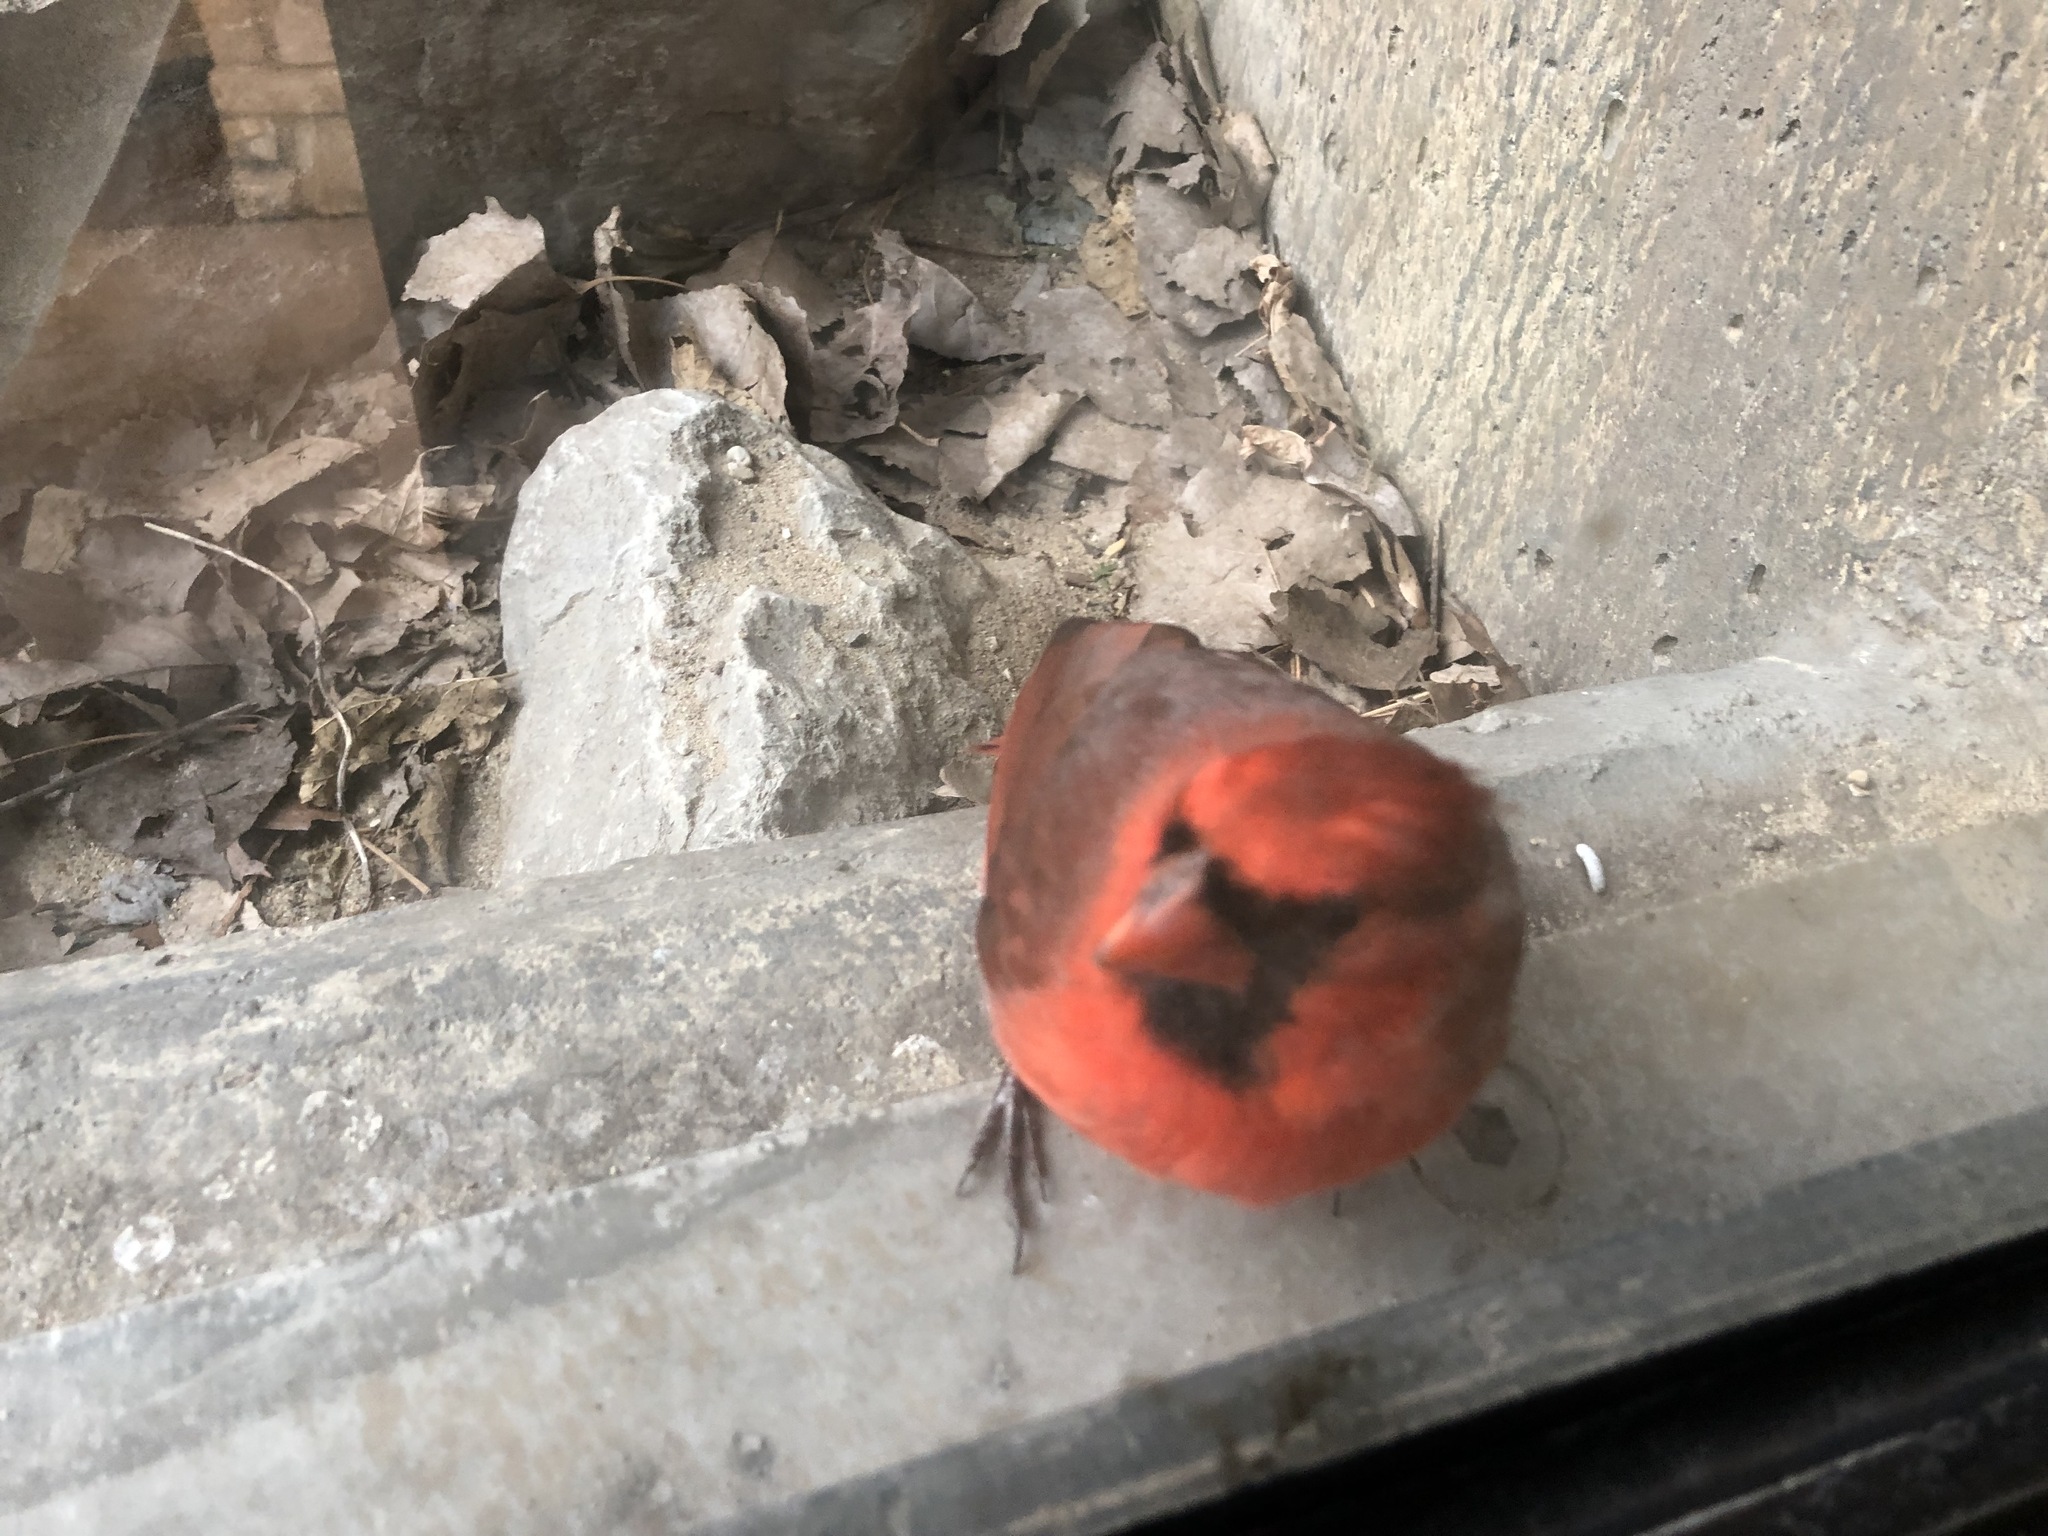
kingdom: Animalia
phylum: Chordata
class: Aves
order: Passeriformes
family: Cardinalidae
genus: Cardinalis
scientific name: Cardinalis cardinalis
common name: Northern cardinal
